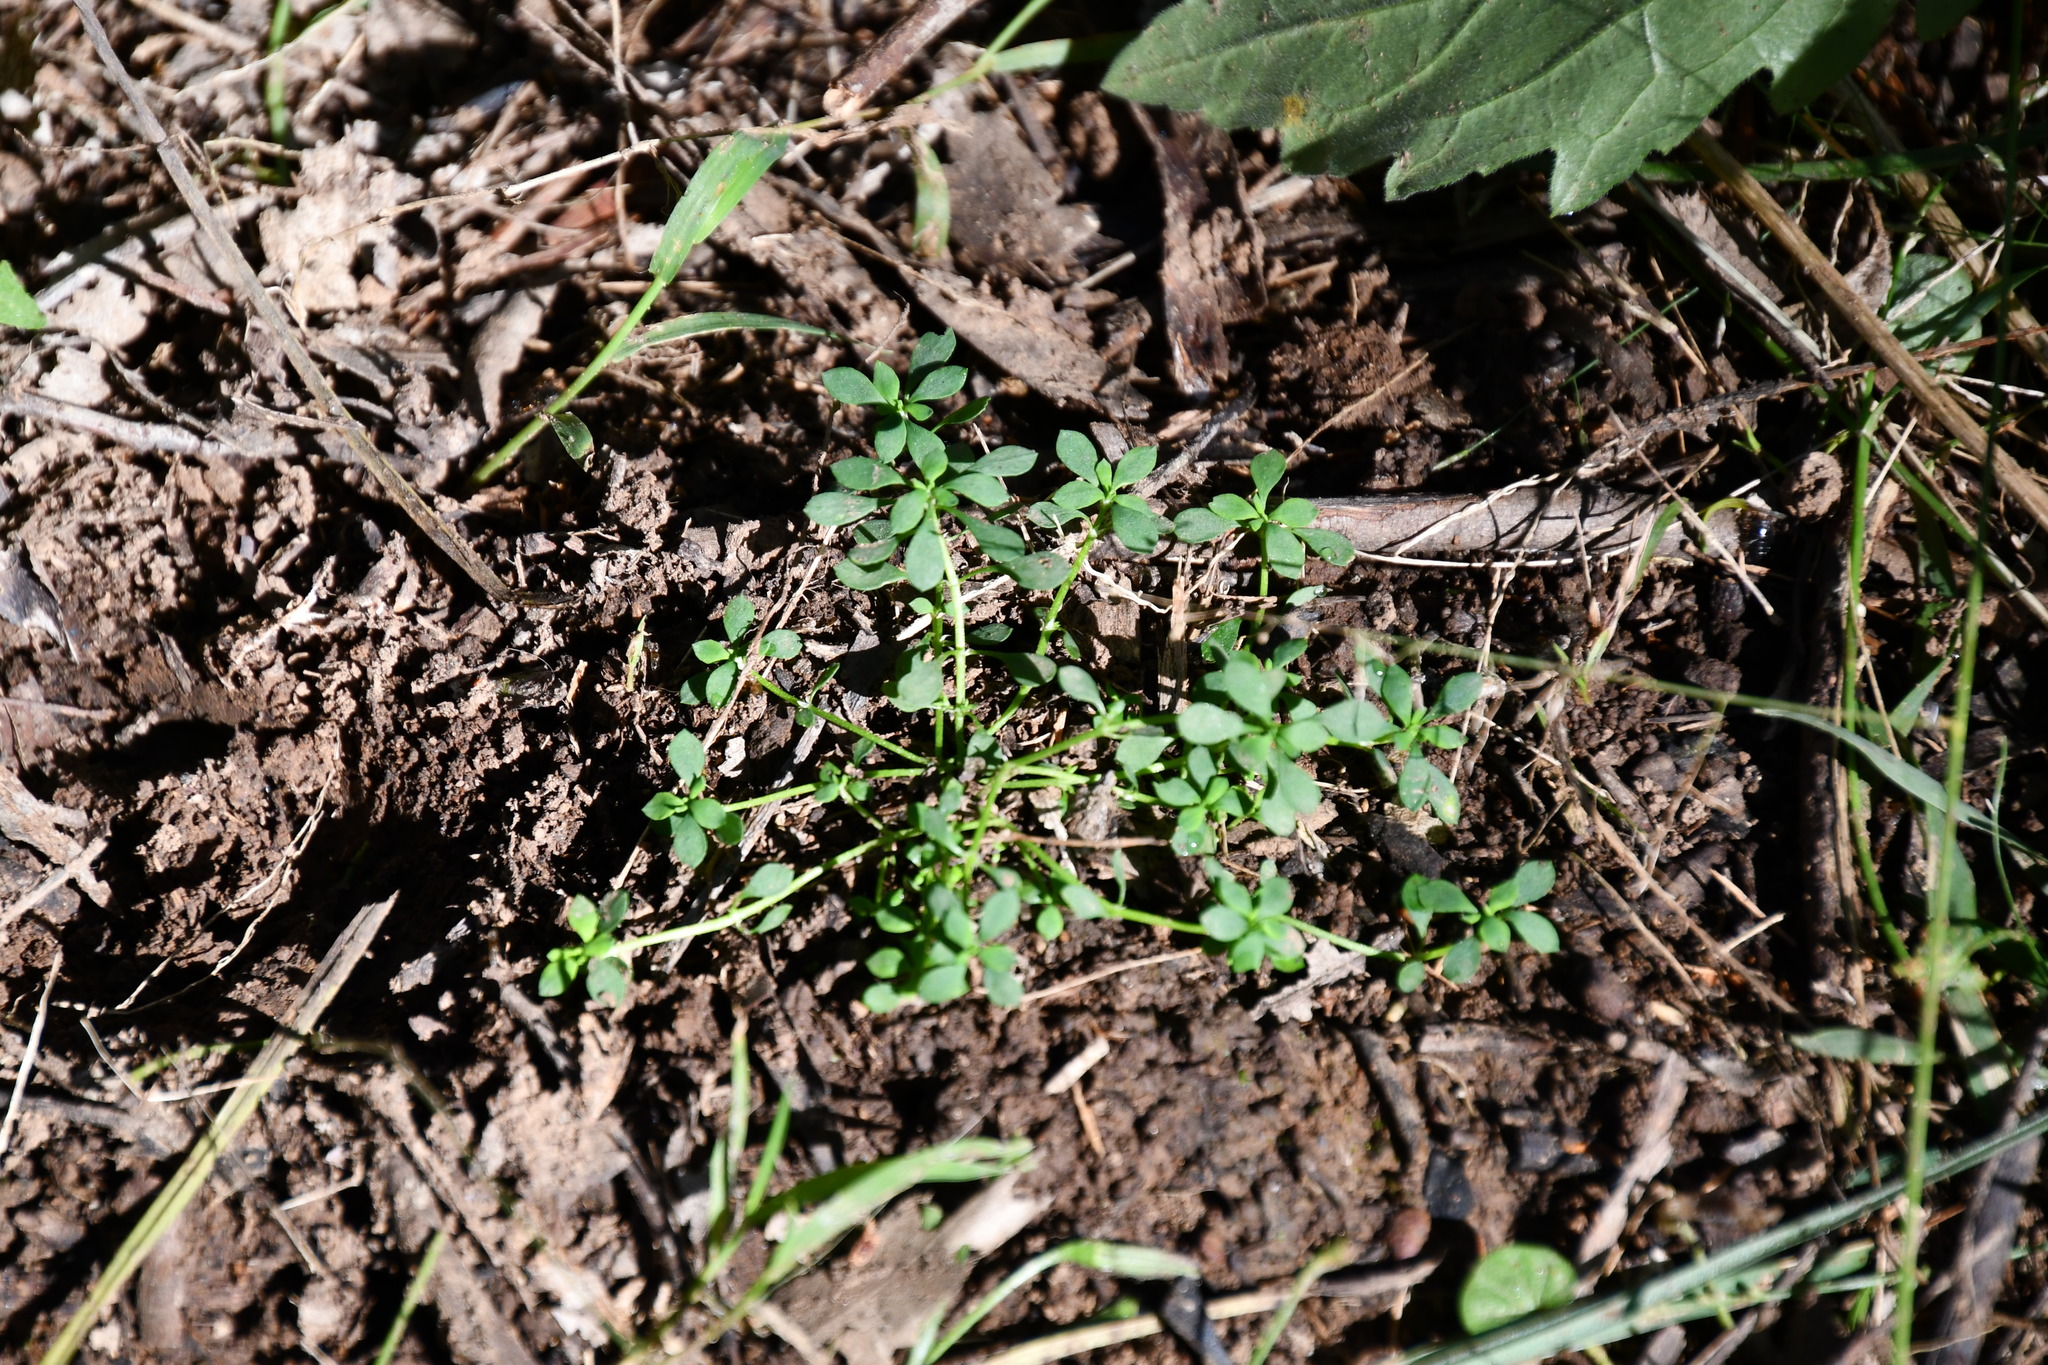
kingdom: Plantae
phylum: Tracheophyta
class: Magnoliopsida
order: Malpighiales
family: Phyllanthaceae
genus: Poranthera
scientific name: Poranthera microphylla
